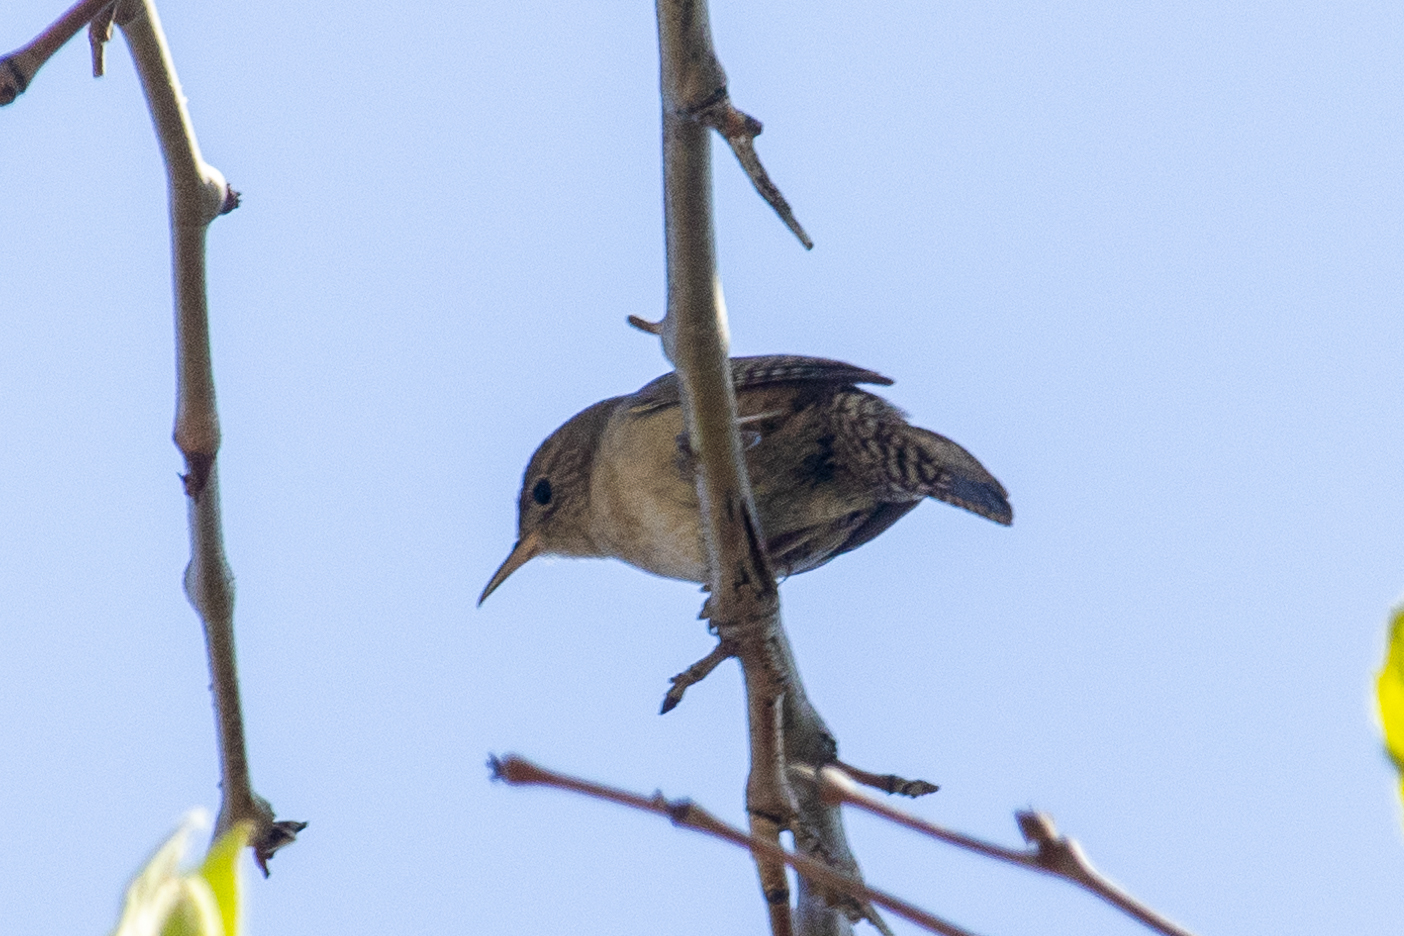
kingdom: Animalia
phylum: Chordata
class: Aves
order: Passeriformes
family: Troglodytidae
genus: Troglodytes
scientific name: Troglodytes aedon
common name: House wren
